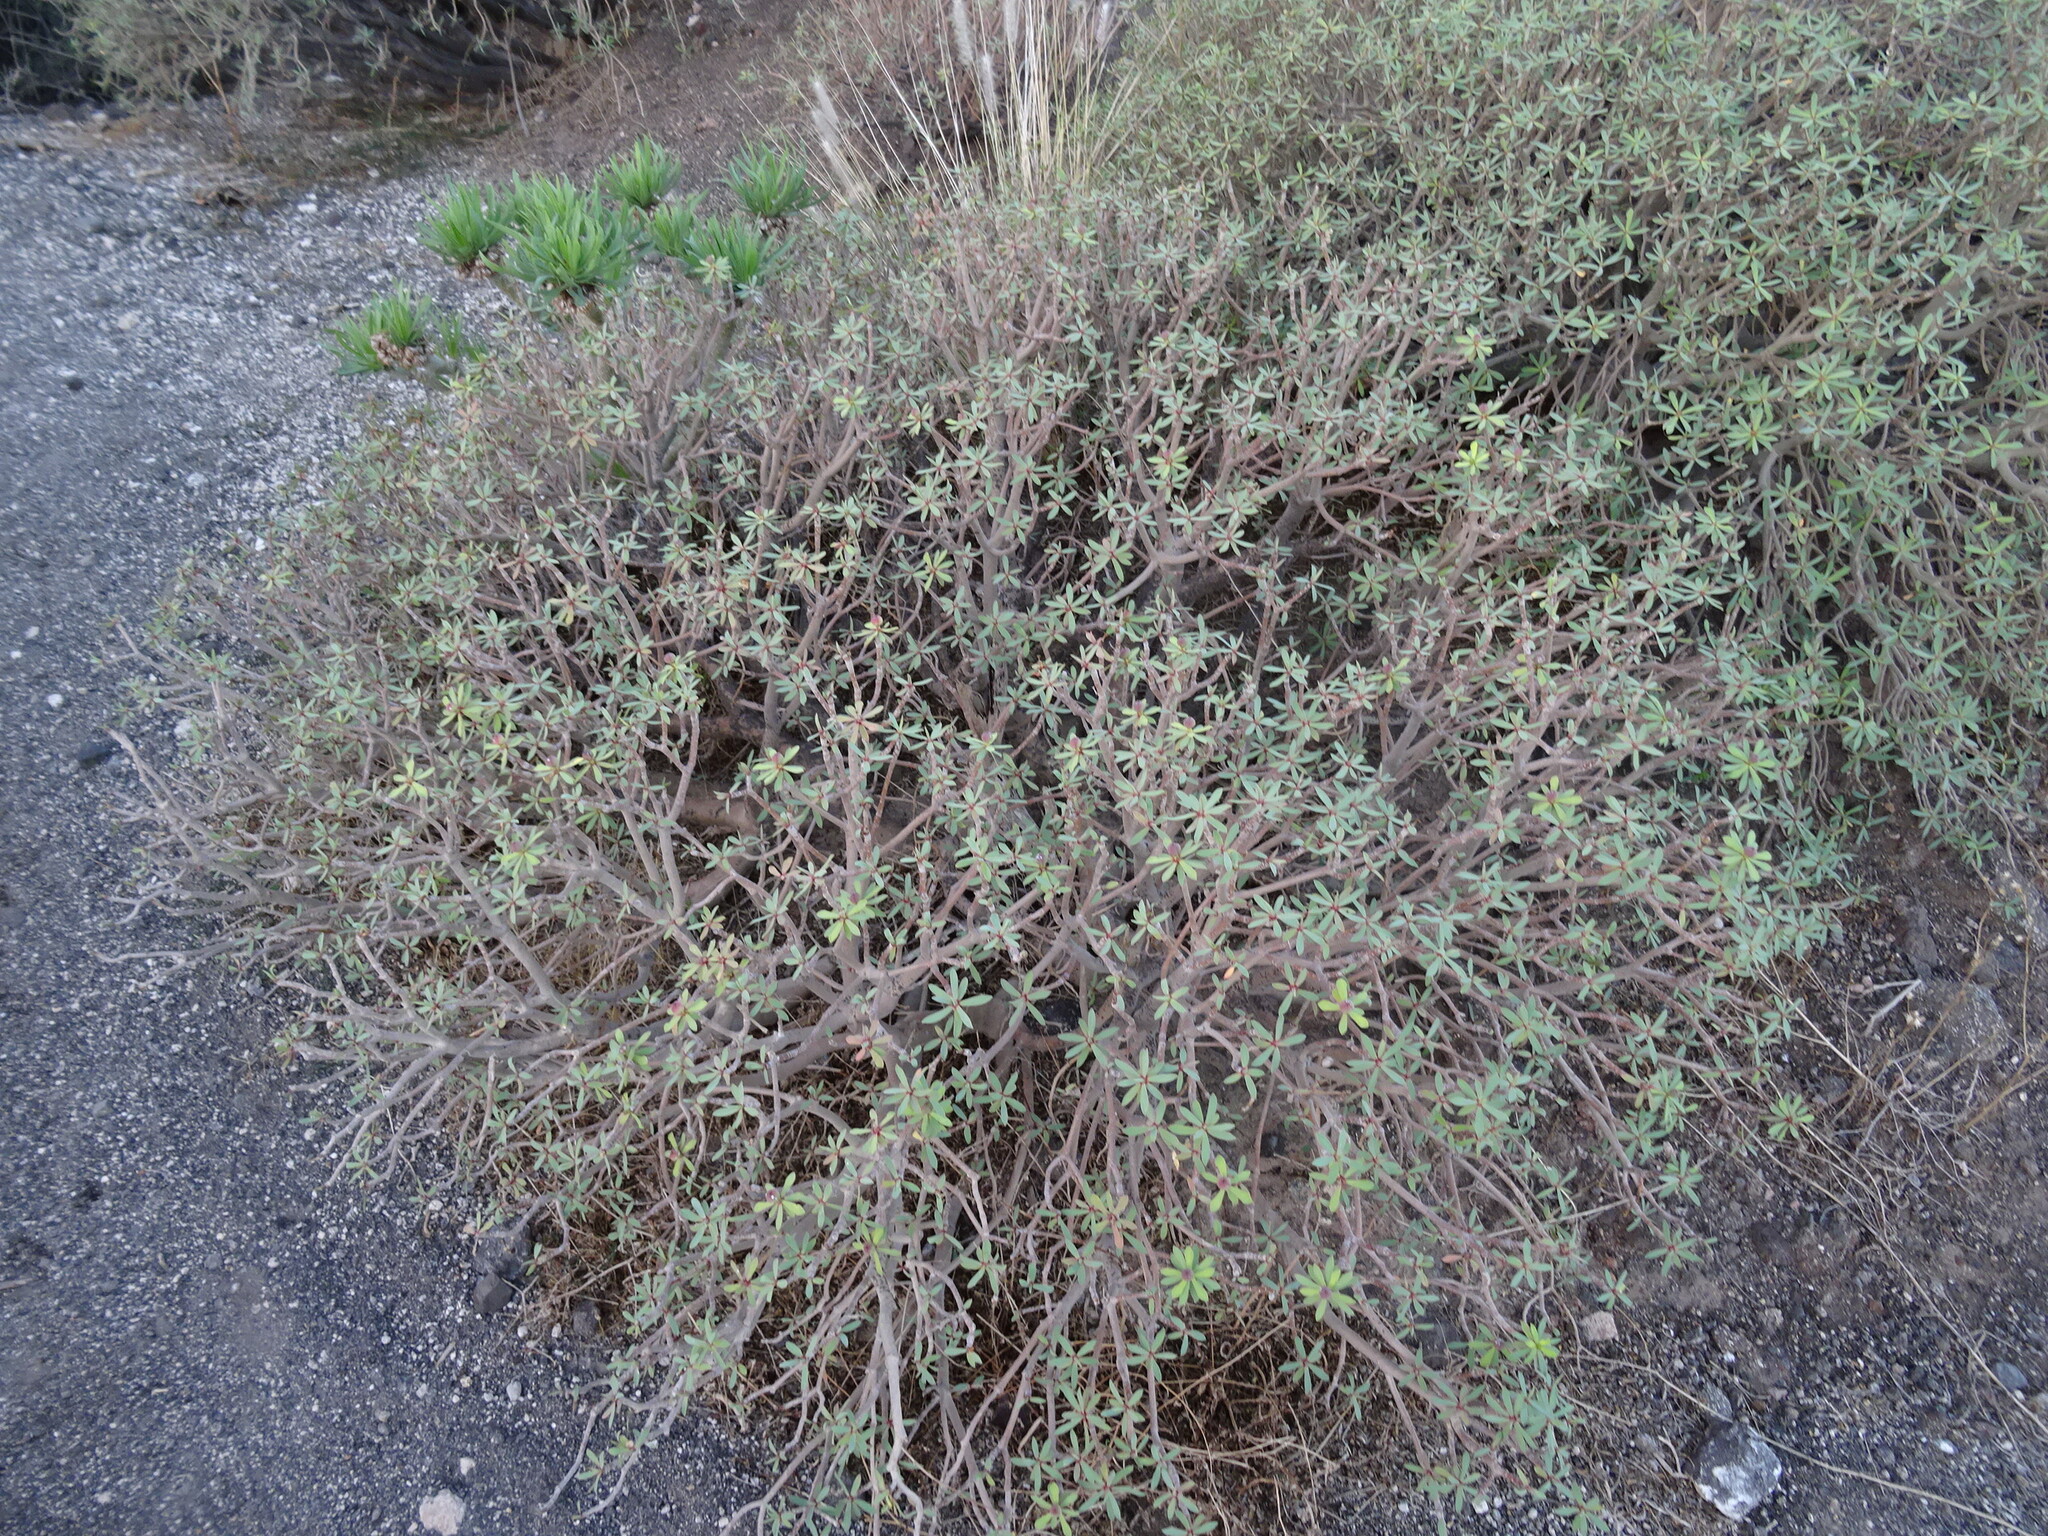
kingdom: Plantae
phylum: Tracheophyta
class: Magnoliopsida
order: Malpighiales
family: Euphorbiaceae
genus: Euphorbia
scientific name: Euphorbia balsamifera
